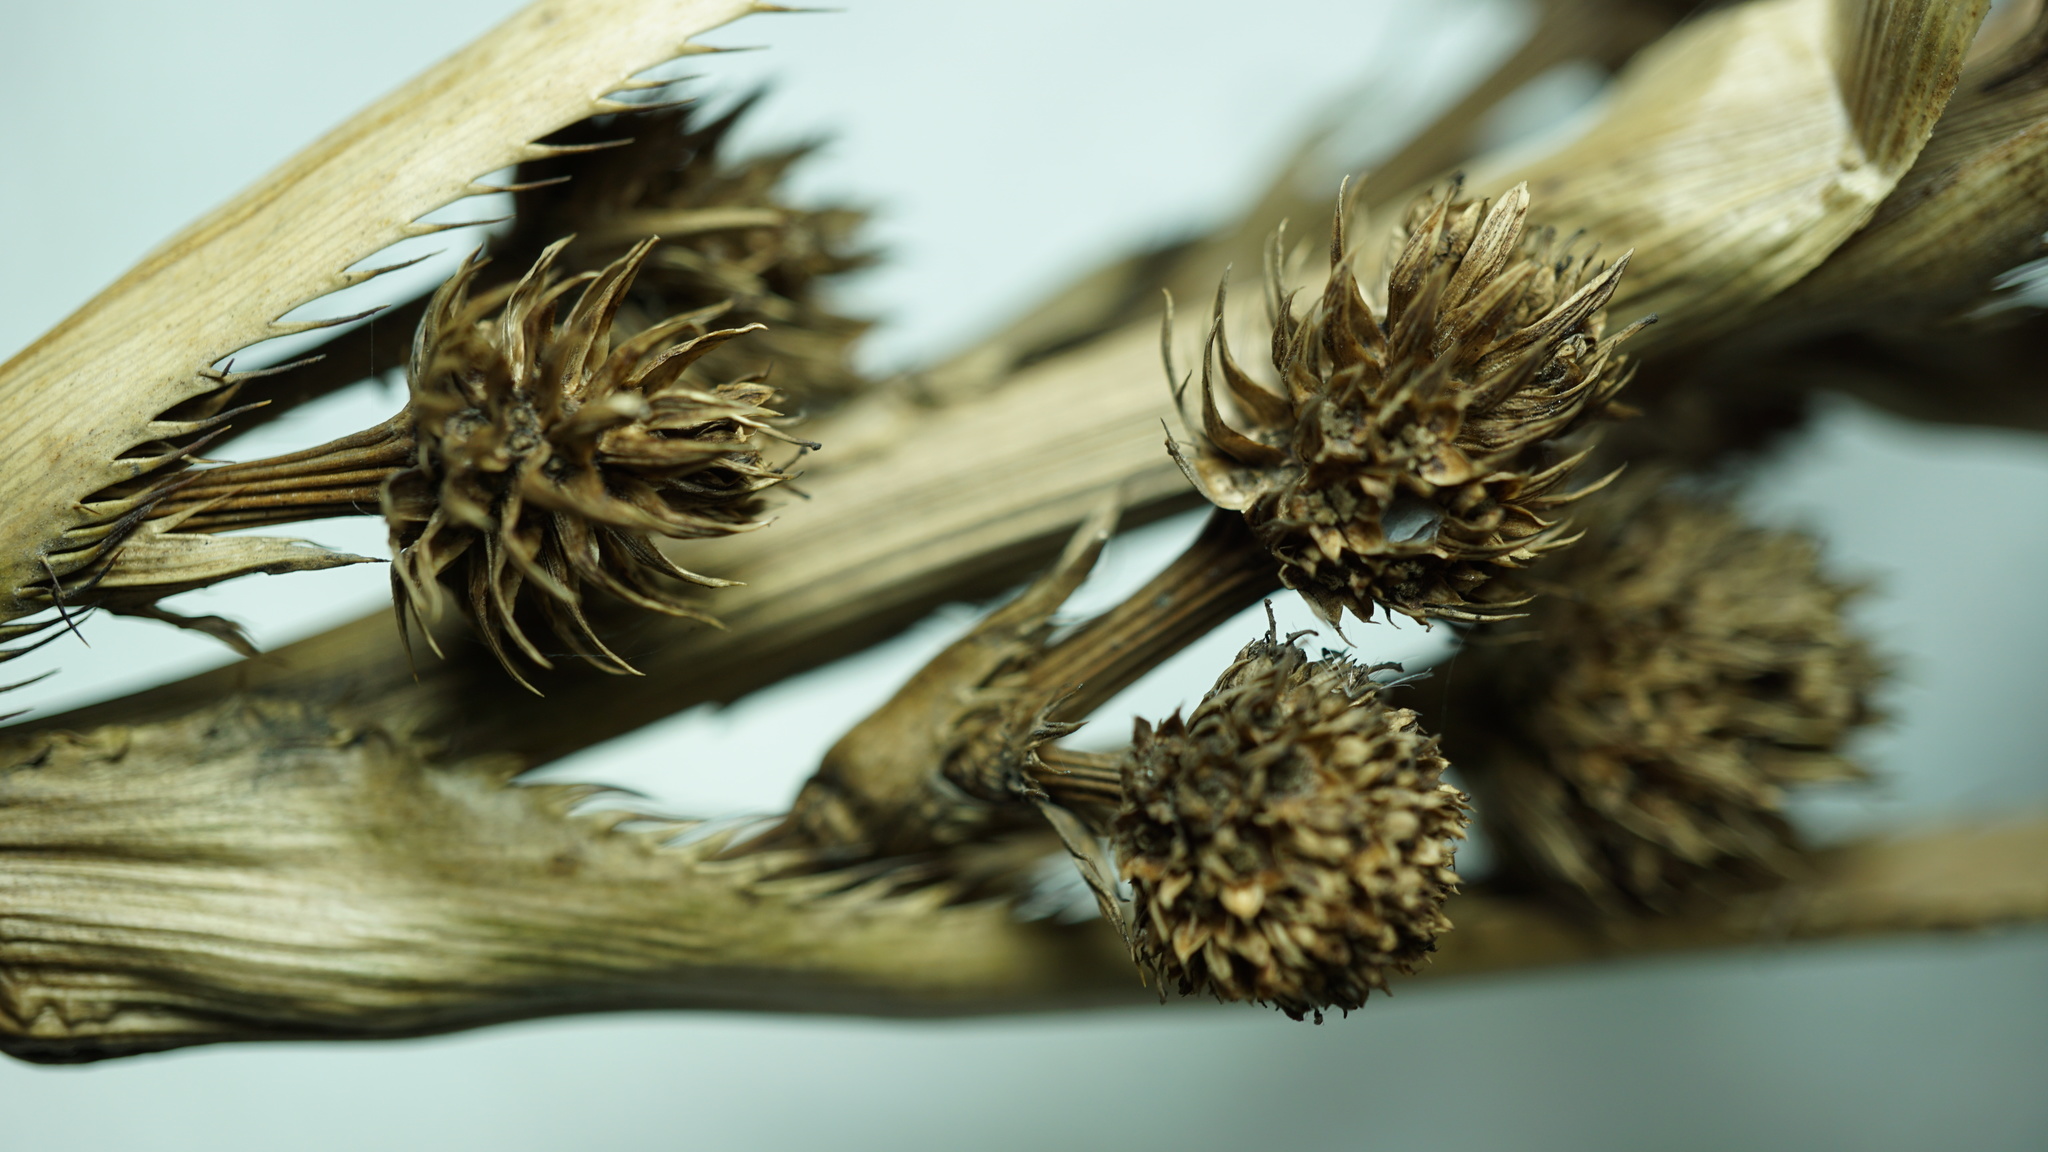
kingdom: Plantae
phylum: Tracheophyta
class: Magnoliopsida
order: Apiales
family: Apiaceae
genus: Eryngium
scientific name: Eryngium humboldtii
